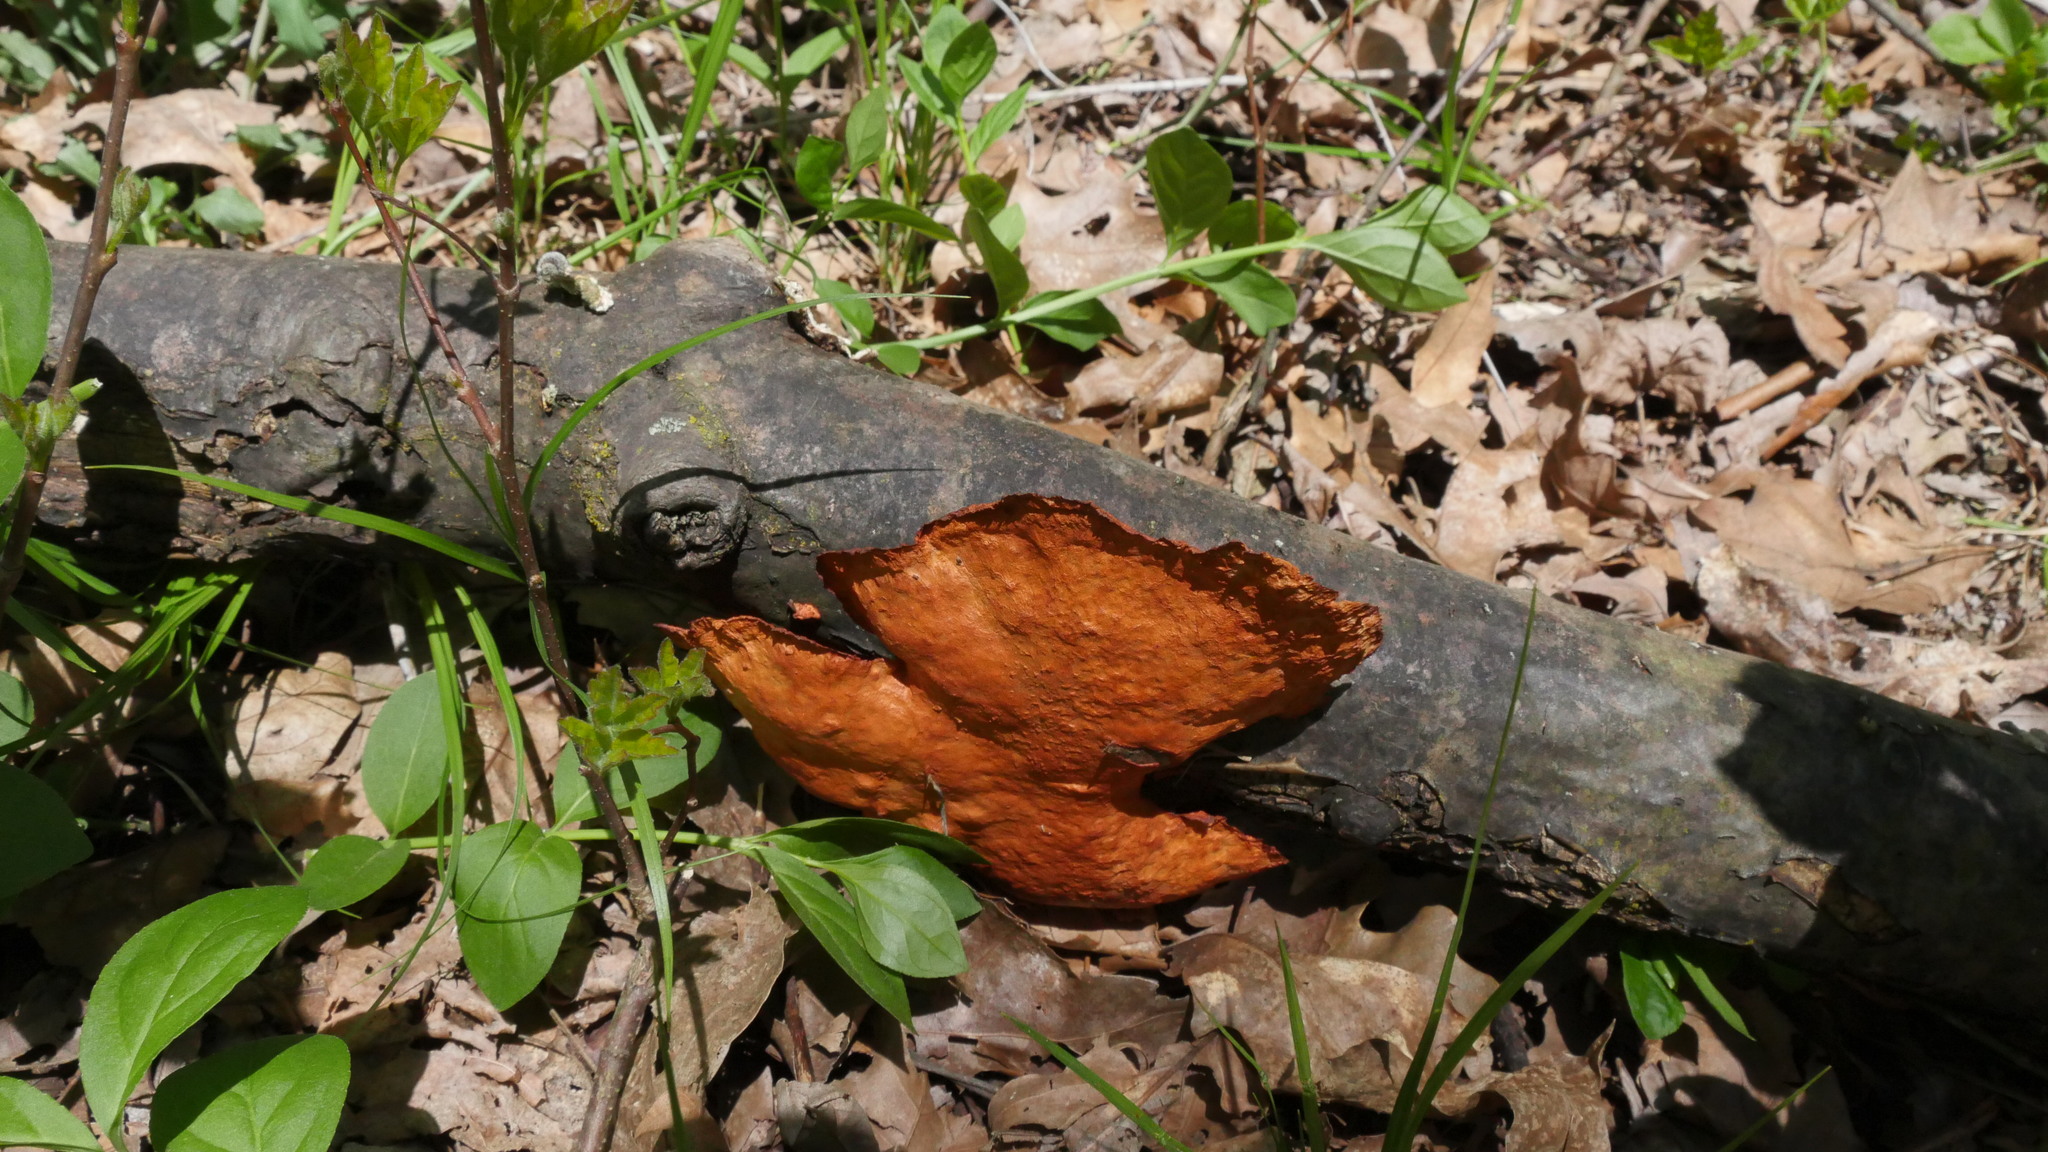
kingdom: Fungi
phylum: Basidiomycota
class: Agaricomycetes
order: Polyporales
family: Polyporaceae
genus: Trametes
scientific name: Trametes cinnabarina
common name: Northern cinnabar polypore
